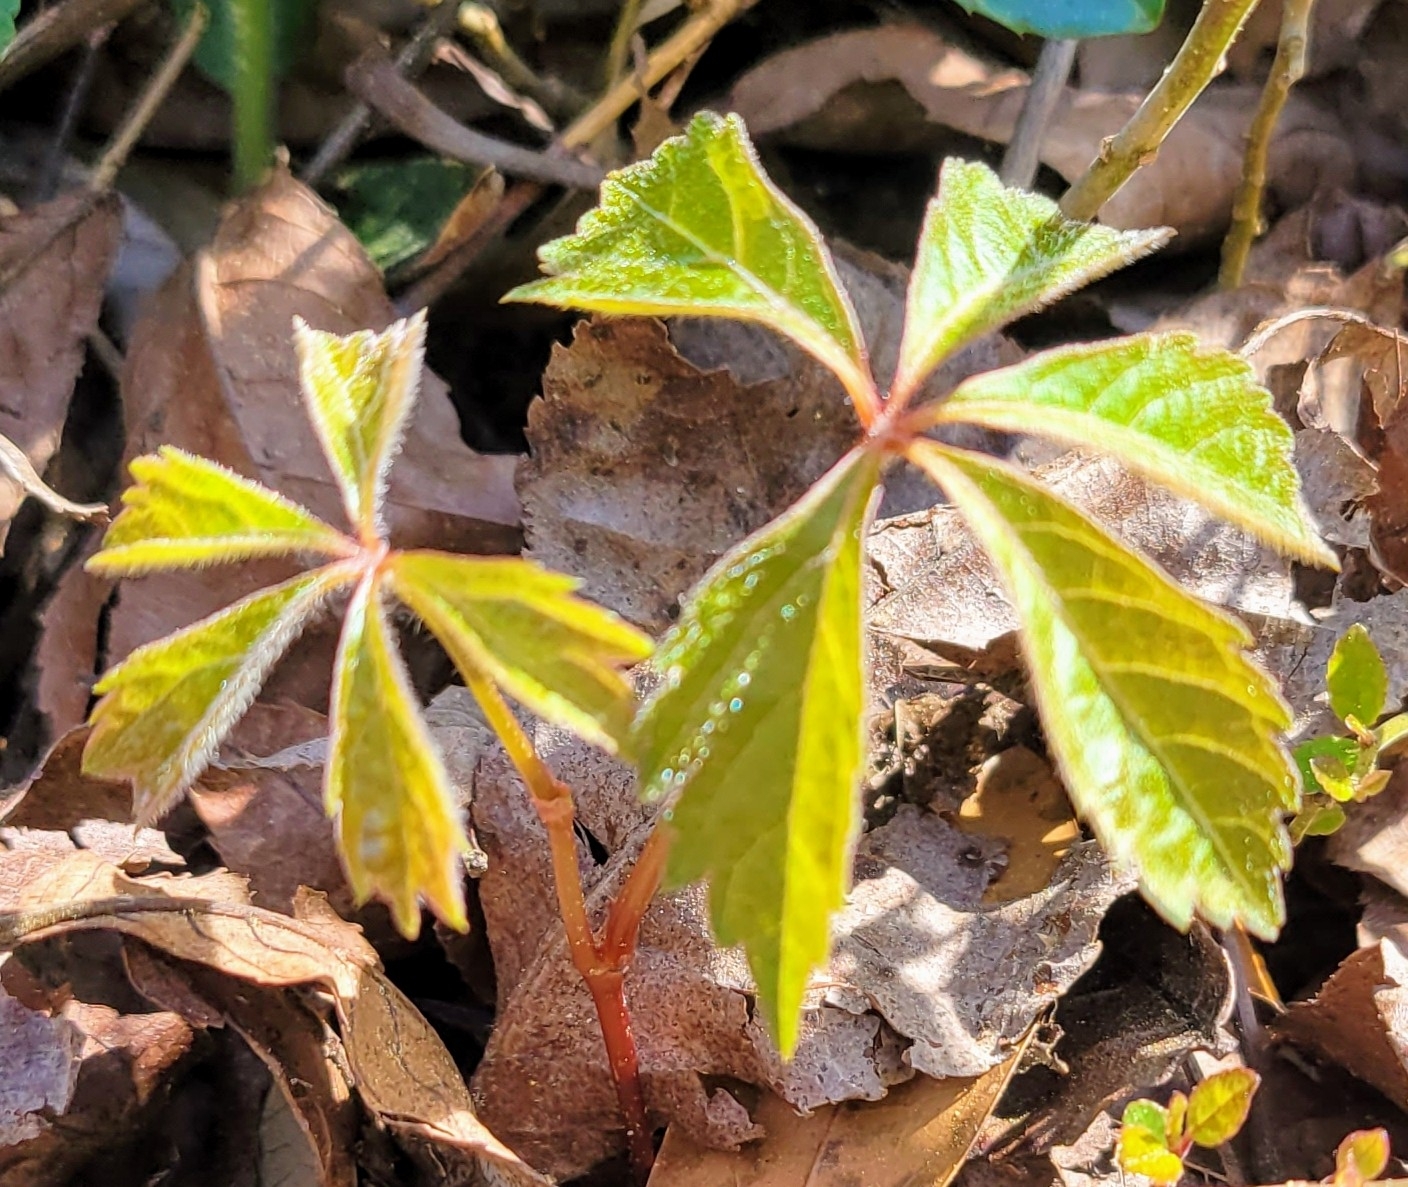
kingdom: Plantae
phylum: Tracheophyta
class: Magnoliopsida
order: Vitales
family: Vitaceae
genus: Parthenocissus
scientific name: Parthenocissus quinquefolia
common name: Virginia-creeper
